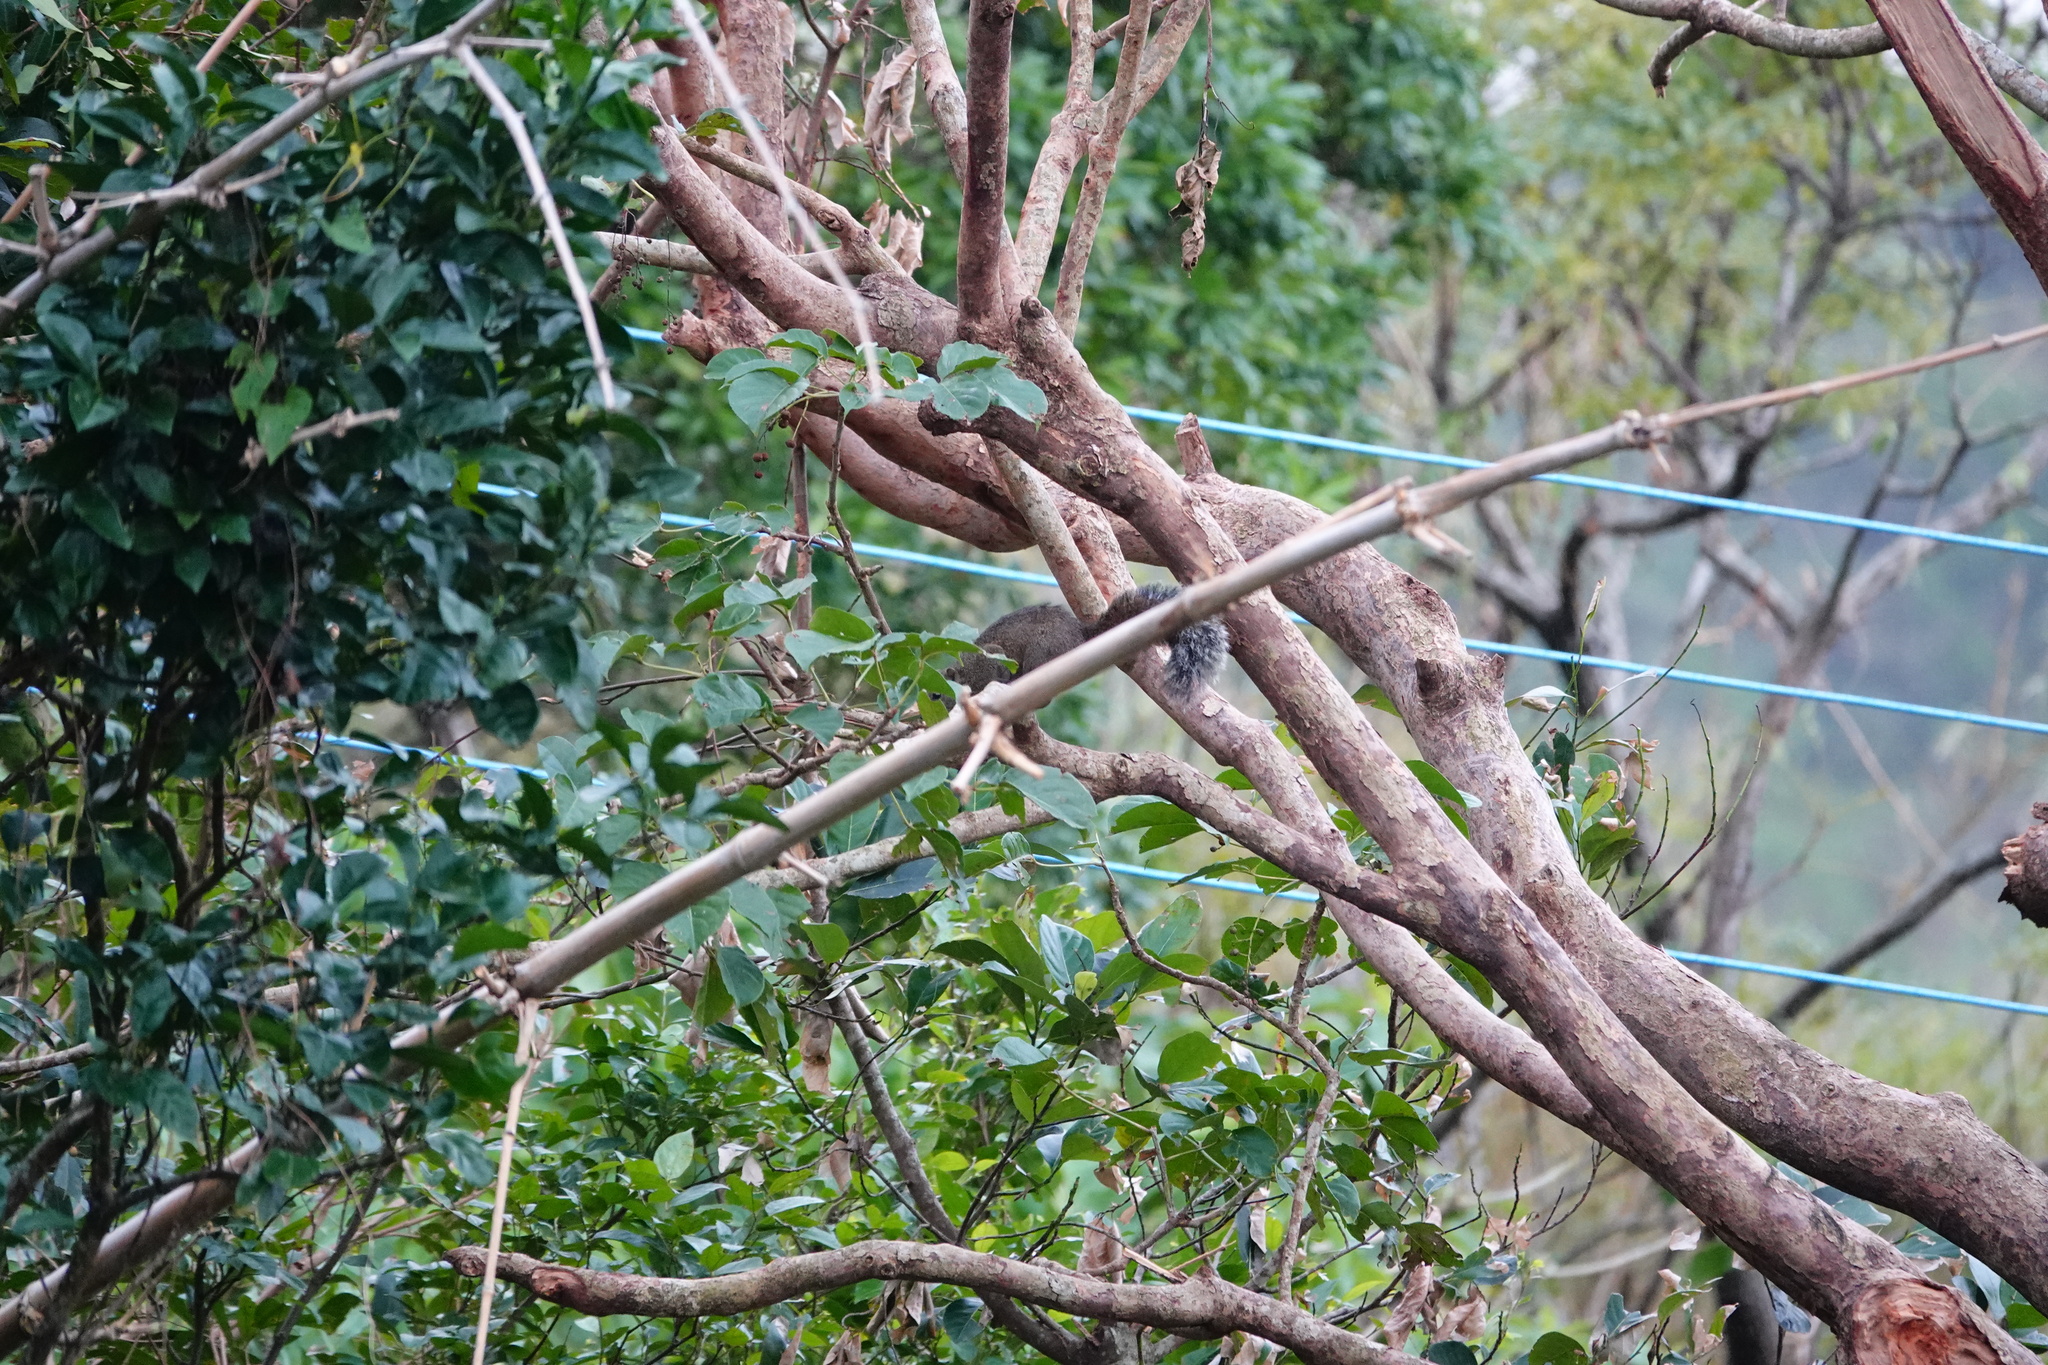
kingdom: Animalia
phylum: Chordata
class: Mammalia
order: Rodentia
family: Sciuridae
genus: Callosciurus
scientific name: Callosciurus erythraeus
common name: Pallas's squirrel
